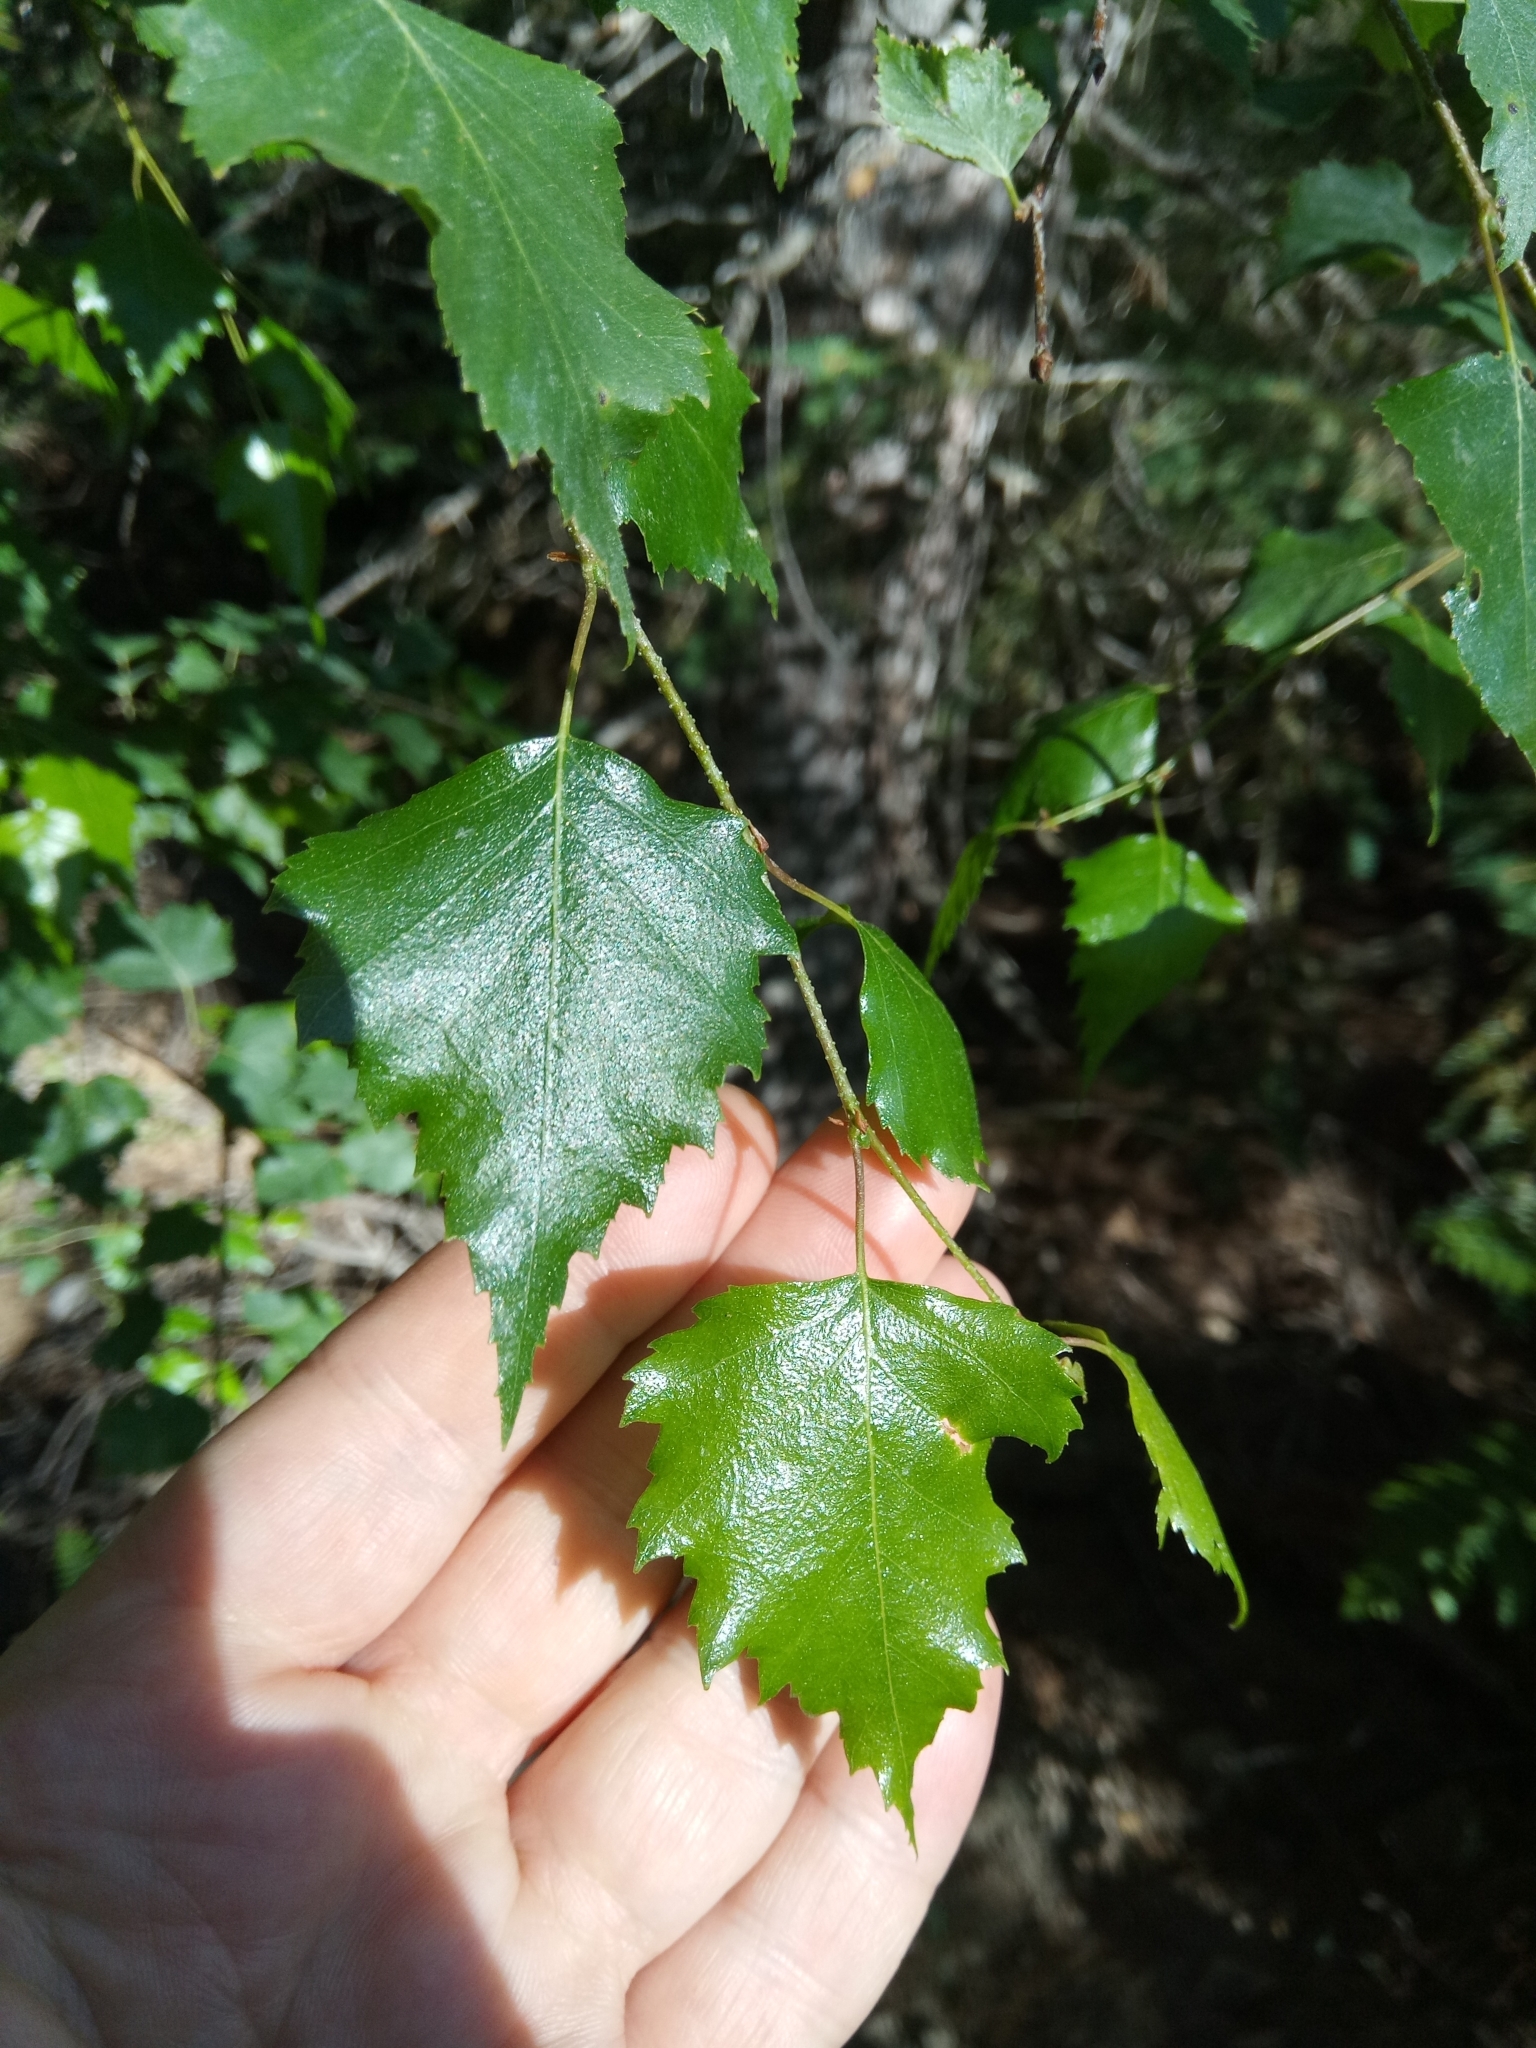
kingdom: Plantae
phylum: Tracheophyta
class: Magnoliopsida
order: Fagales
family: Betulaceae
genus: Betula
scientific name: Betula pendula
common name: Silver birch
